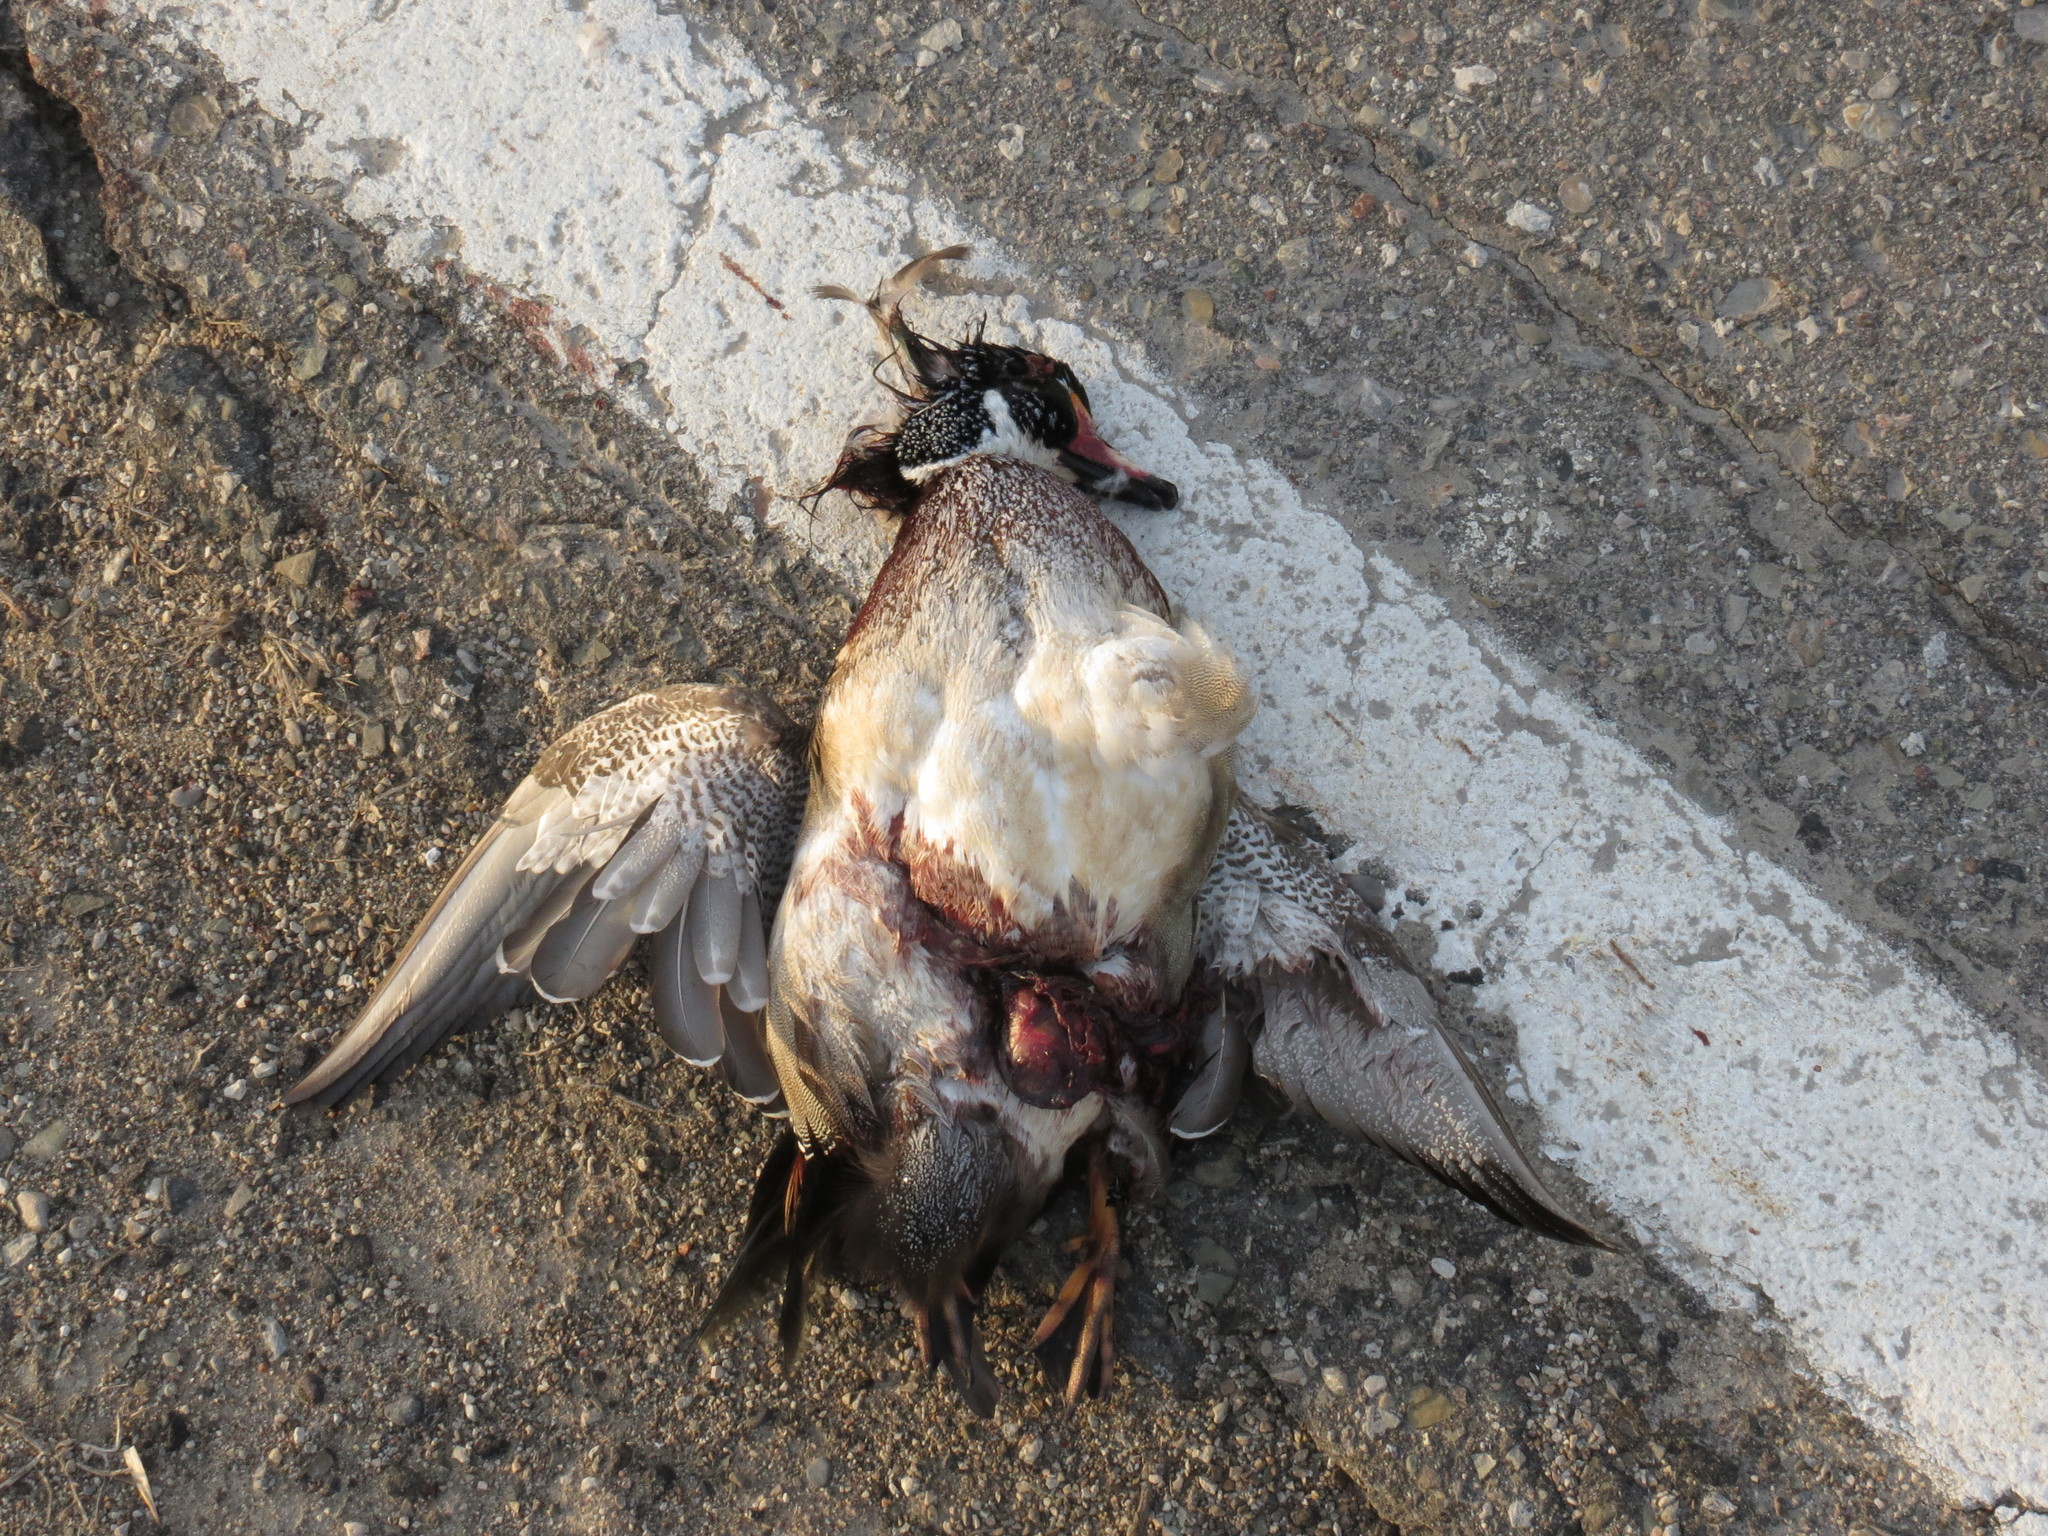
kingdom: Animalia
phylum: Chordata
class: Aves
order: Anseriformes
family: Anatidae
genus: Aix
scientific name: Aix sponsa
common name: Wood duck
